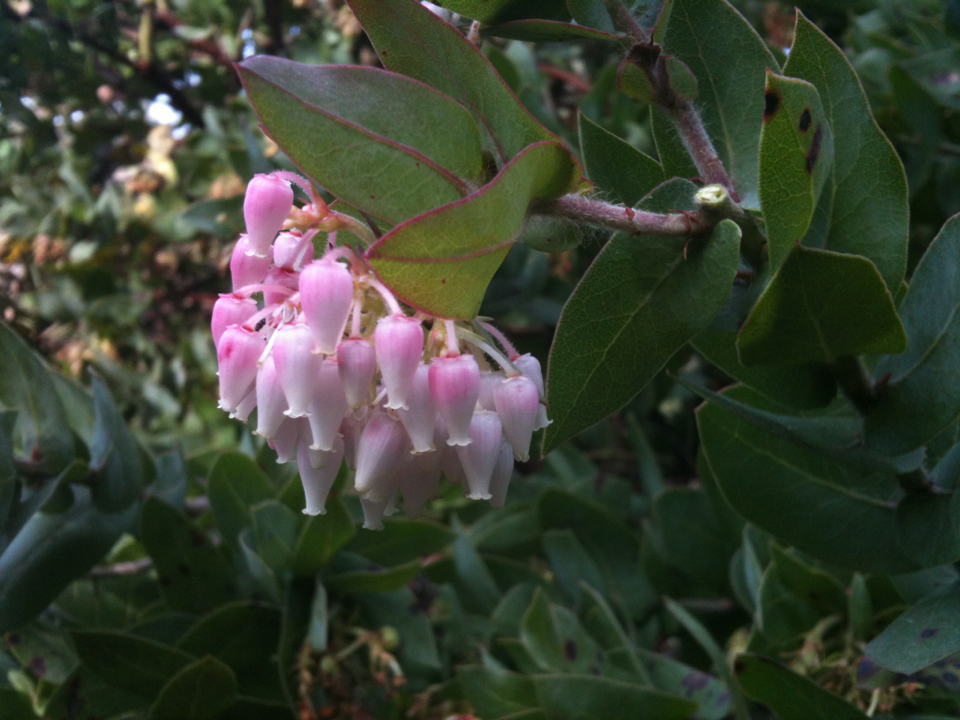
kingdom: Plantae
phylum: Tracheophyta
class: Magnoliopsida
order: Ericales
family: Ericaceae
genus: Arctostaphylos
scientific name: Arctostaphylos pallida
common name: Pallid manzanita
